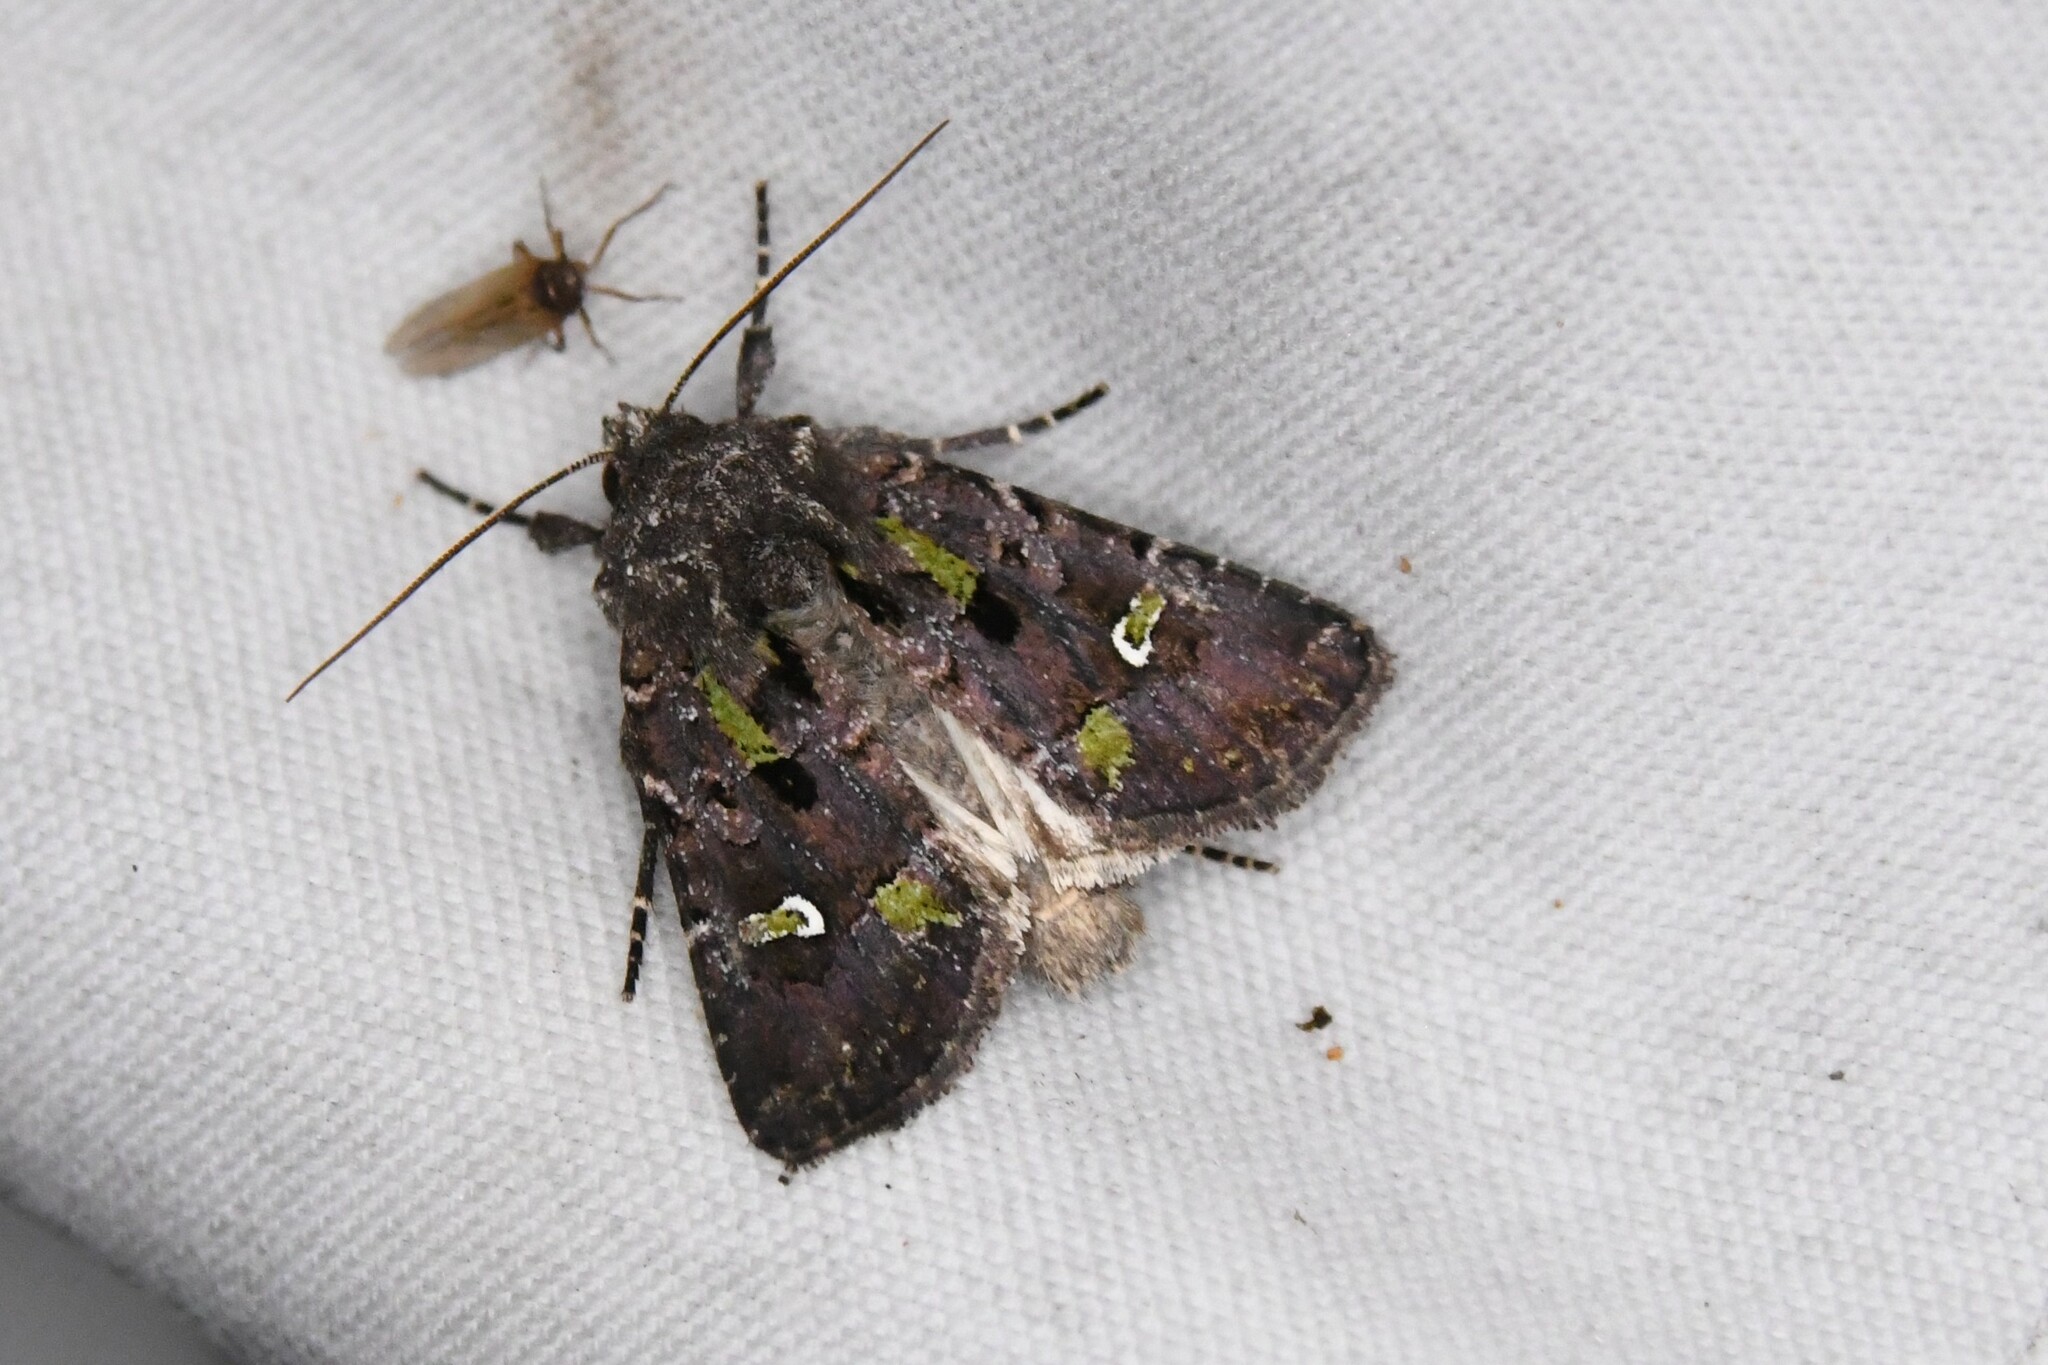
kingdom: Animalia
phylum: Arthropoda
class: Insecta
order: Lepidoptera
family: Noctuidae
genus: Lacinipolia
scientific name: Lacinipolia renigera
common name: Kidney-spotted minor
